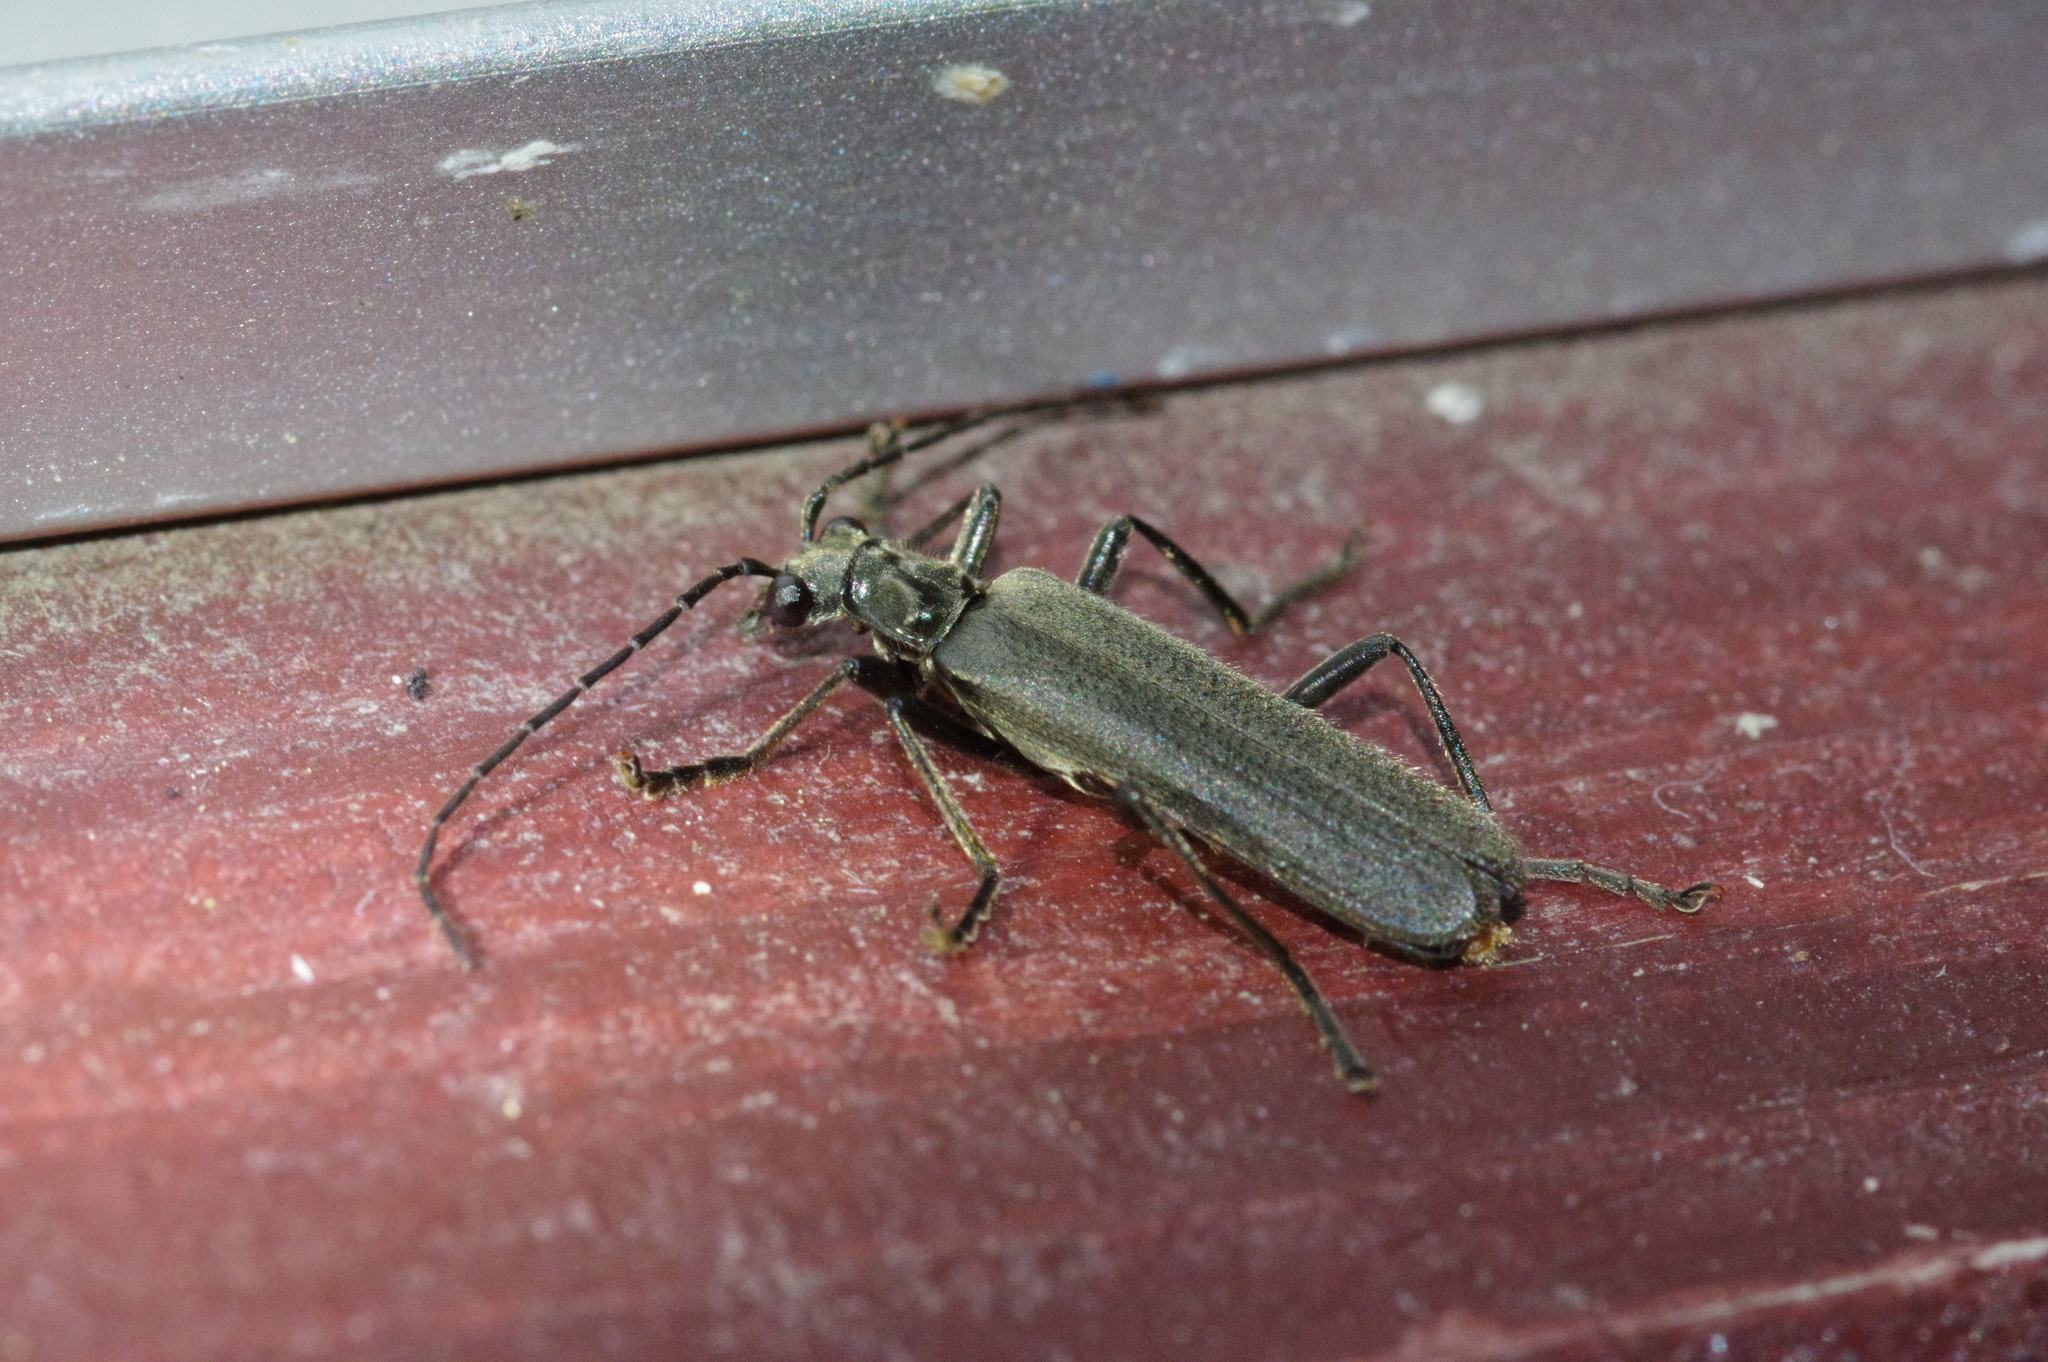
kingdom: Animalia
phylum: Arthropoda
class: Insecta
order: Coleoptera
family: Cantharidae
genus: Lycocerus
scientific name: Lycocerus
